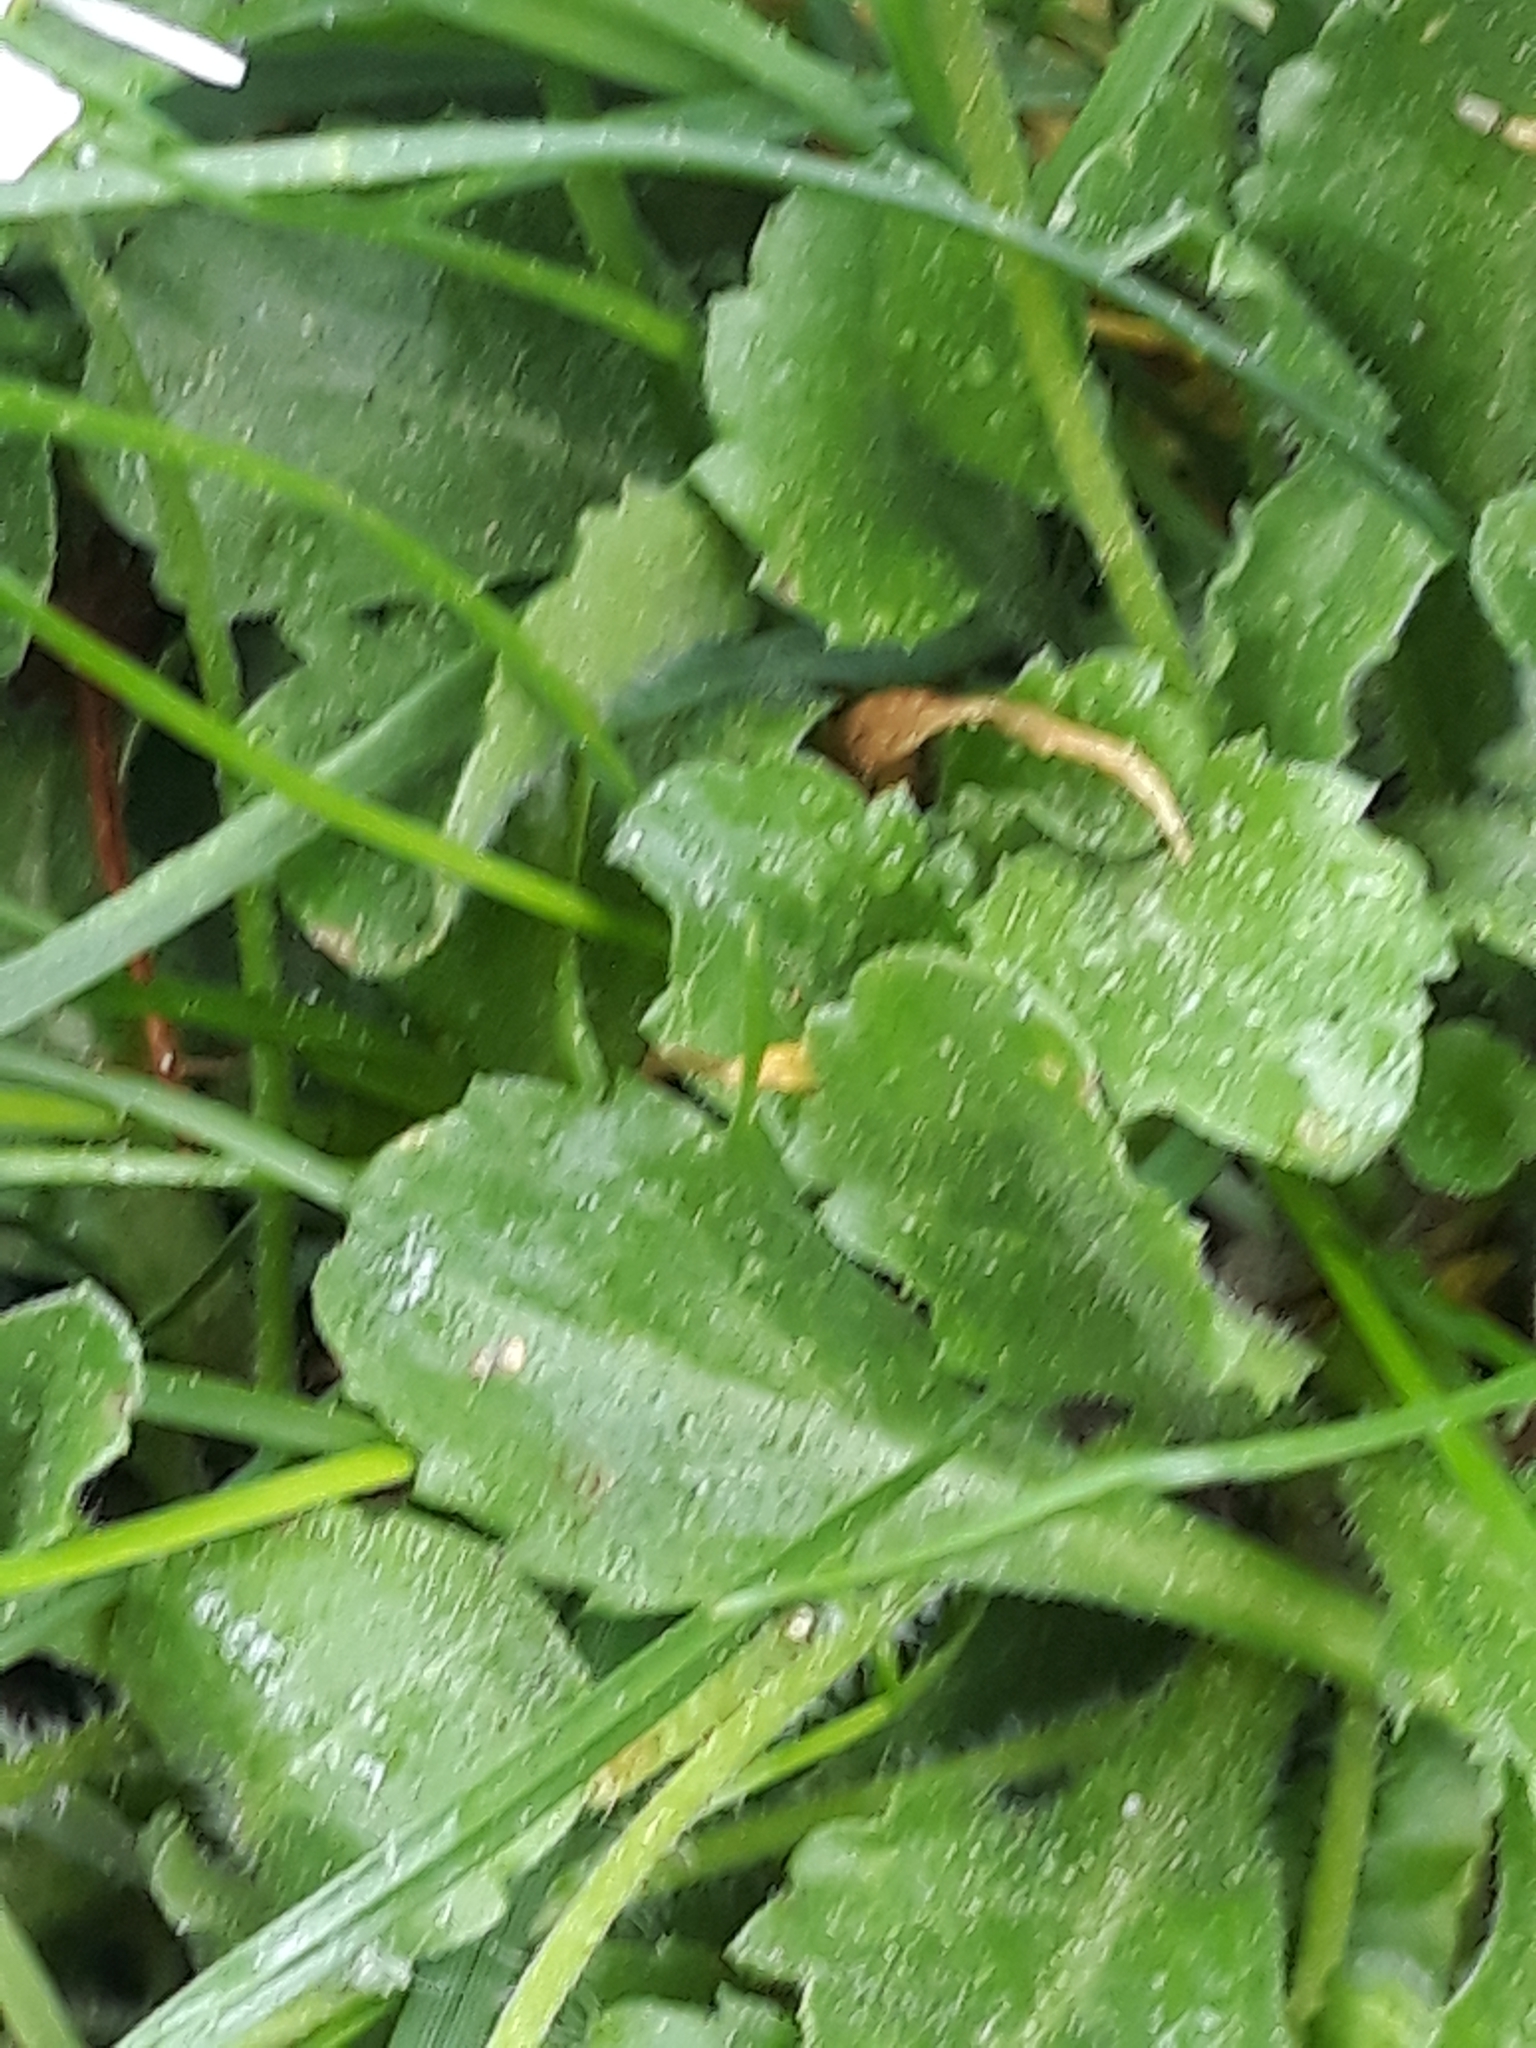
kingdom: Plantae
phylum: Tracheophyta
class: Magnoliopsida
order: Asterales
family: Asteraceae
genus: Bellis
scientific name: Bellis perennis
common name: Lawndaisy
